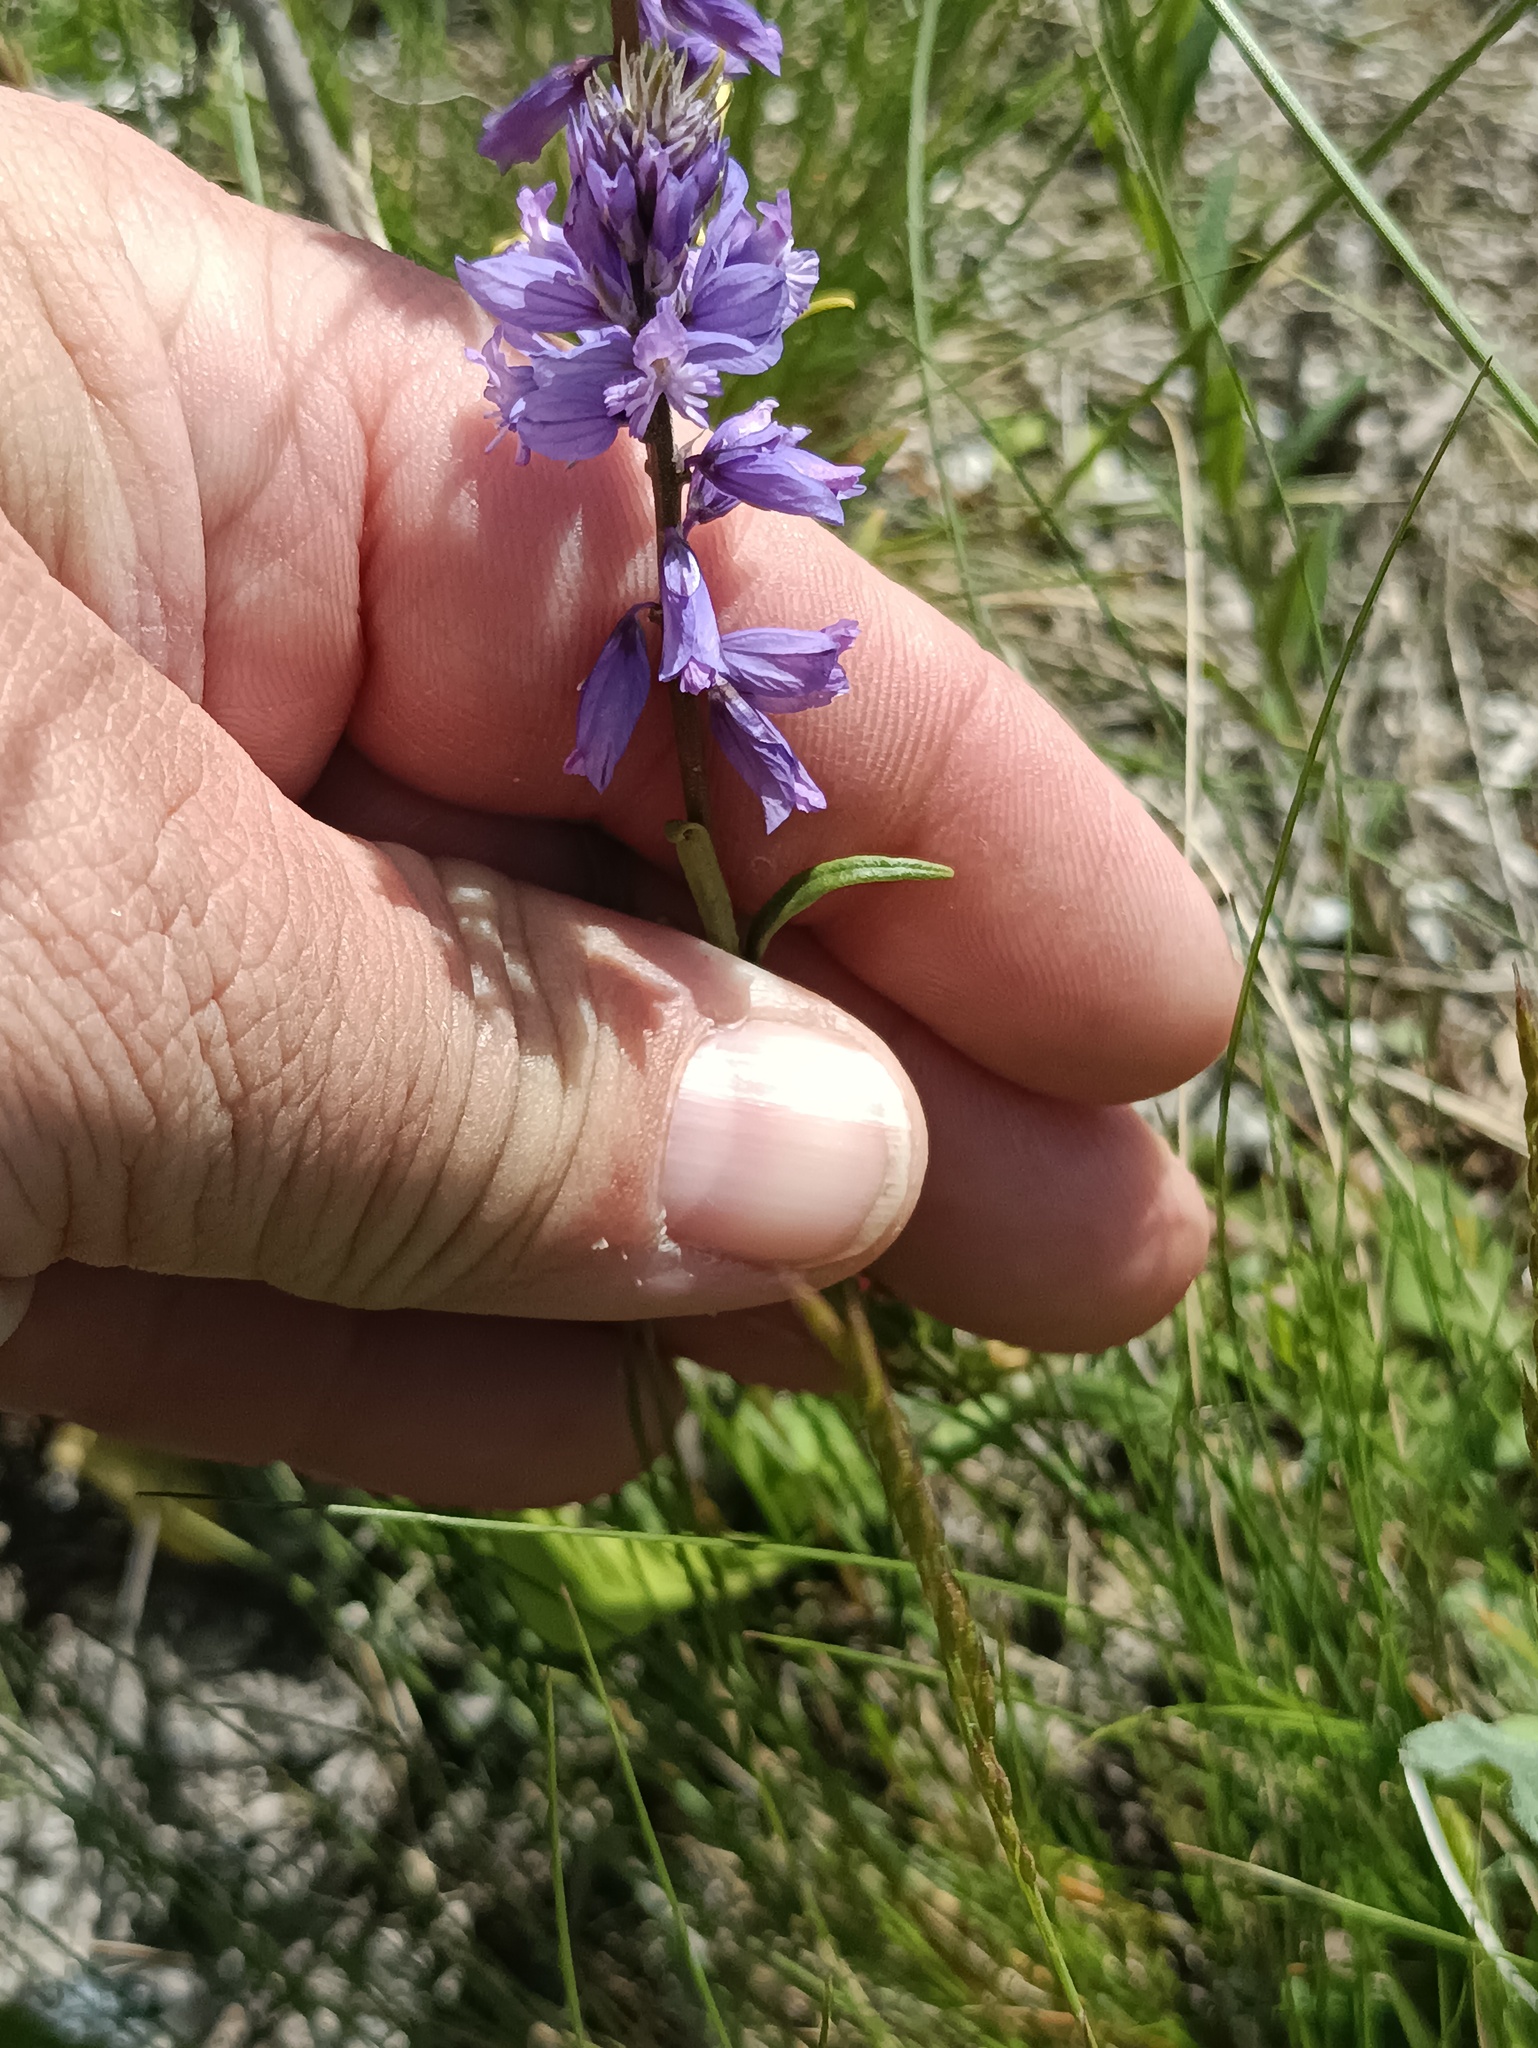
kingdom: Plantae
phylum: Tracheophyta
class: Magnoliopsida
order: Fabales
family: Polygalaceae
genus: Polygala
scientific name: Polygala nicaeensis
